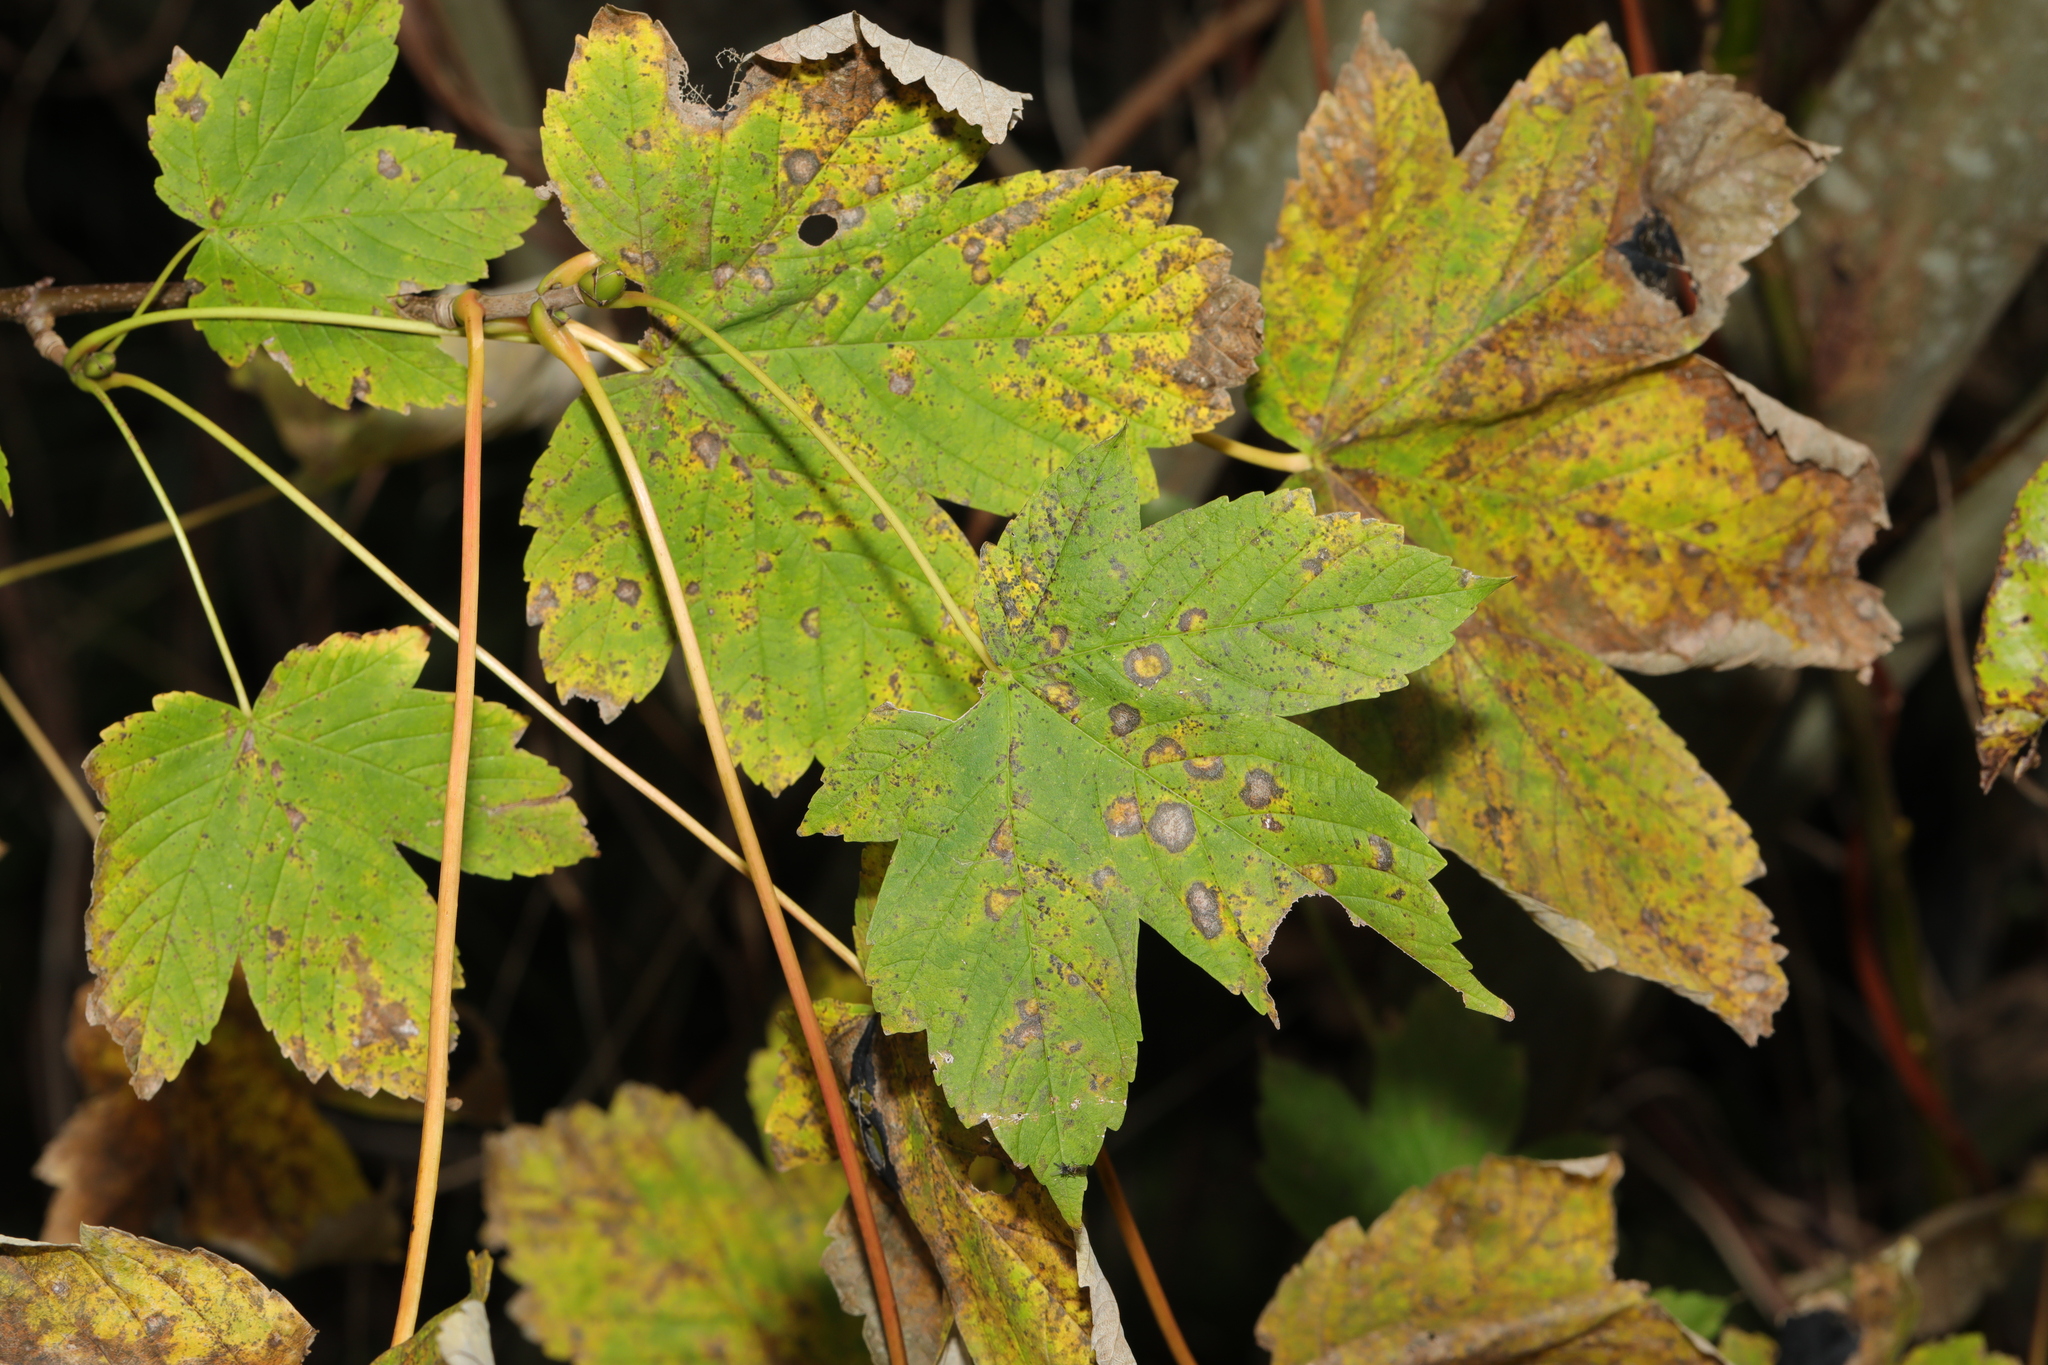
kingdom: Plantae
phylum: Tracheophyta
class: Magnoliopsida
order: Sapindales
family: Sapindaceae
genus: Acer
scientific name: Acer pseudoplatanus
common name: Sycamore
